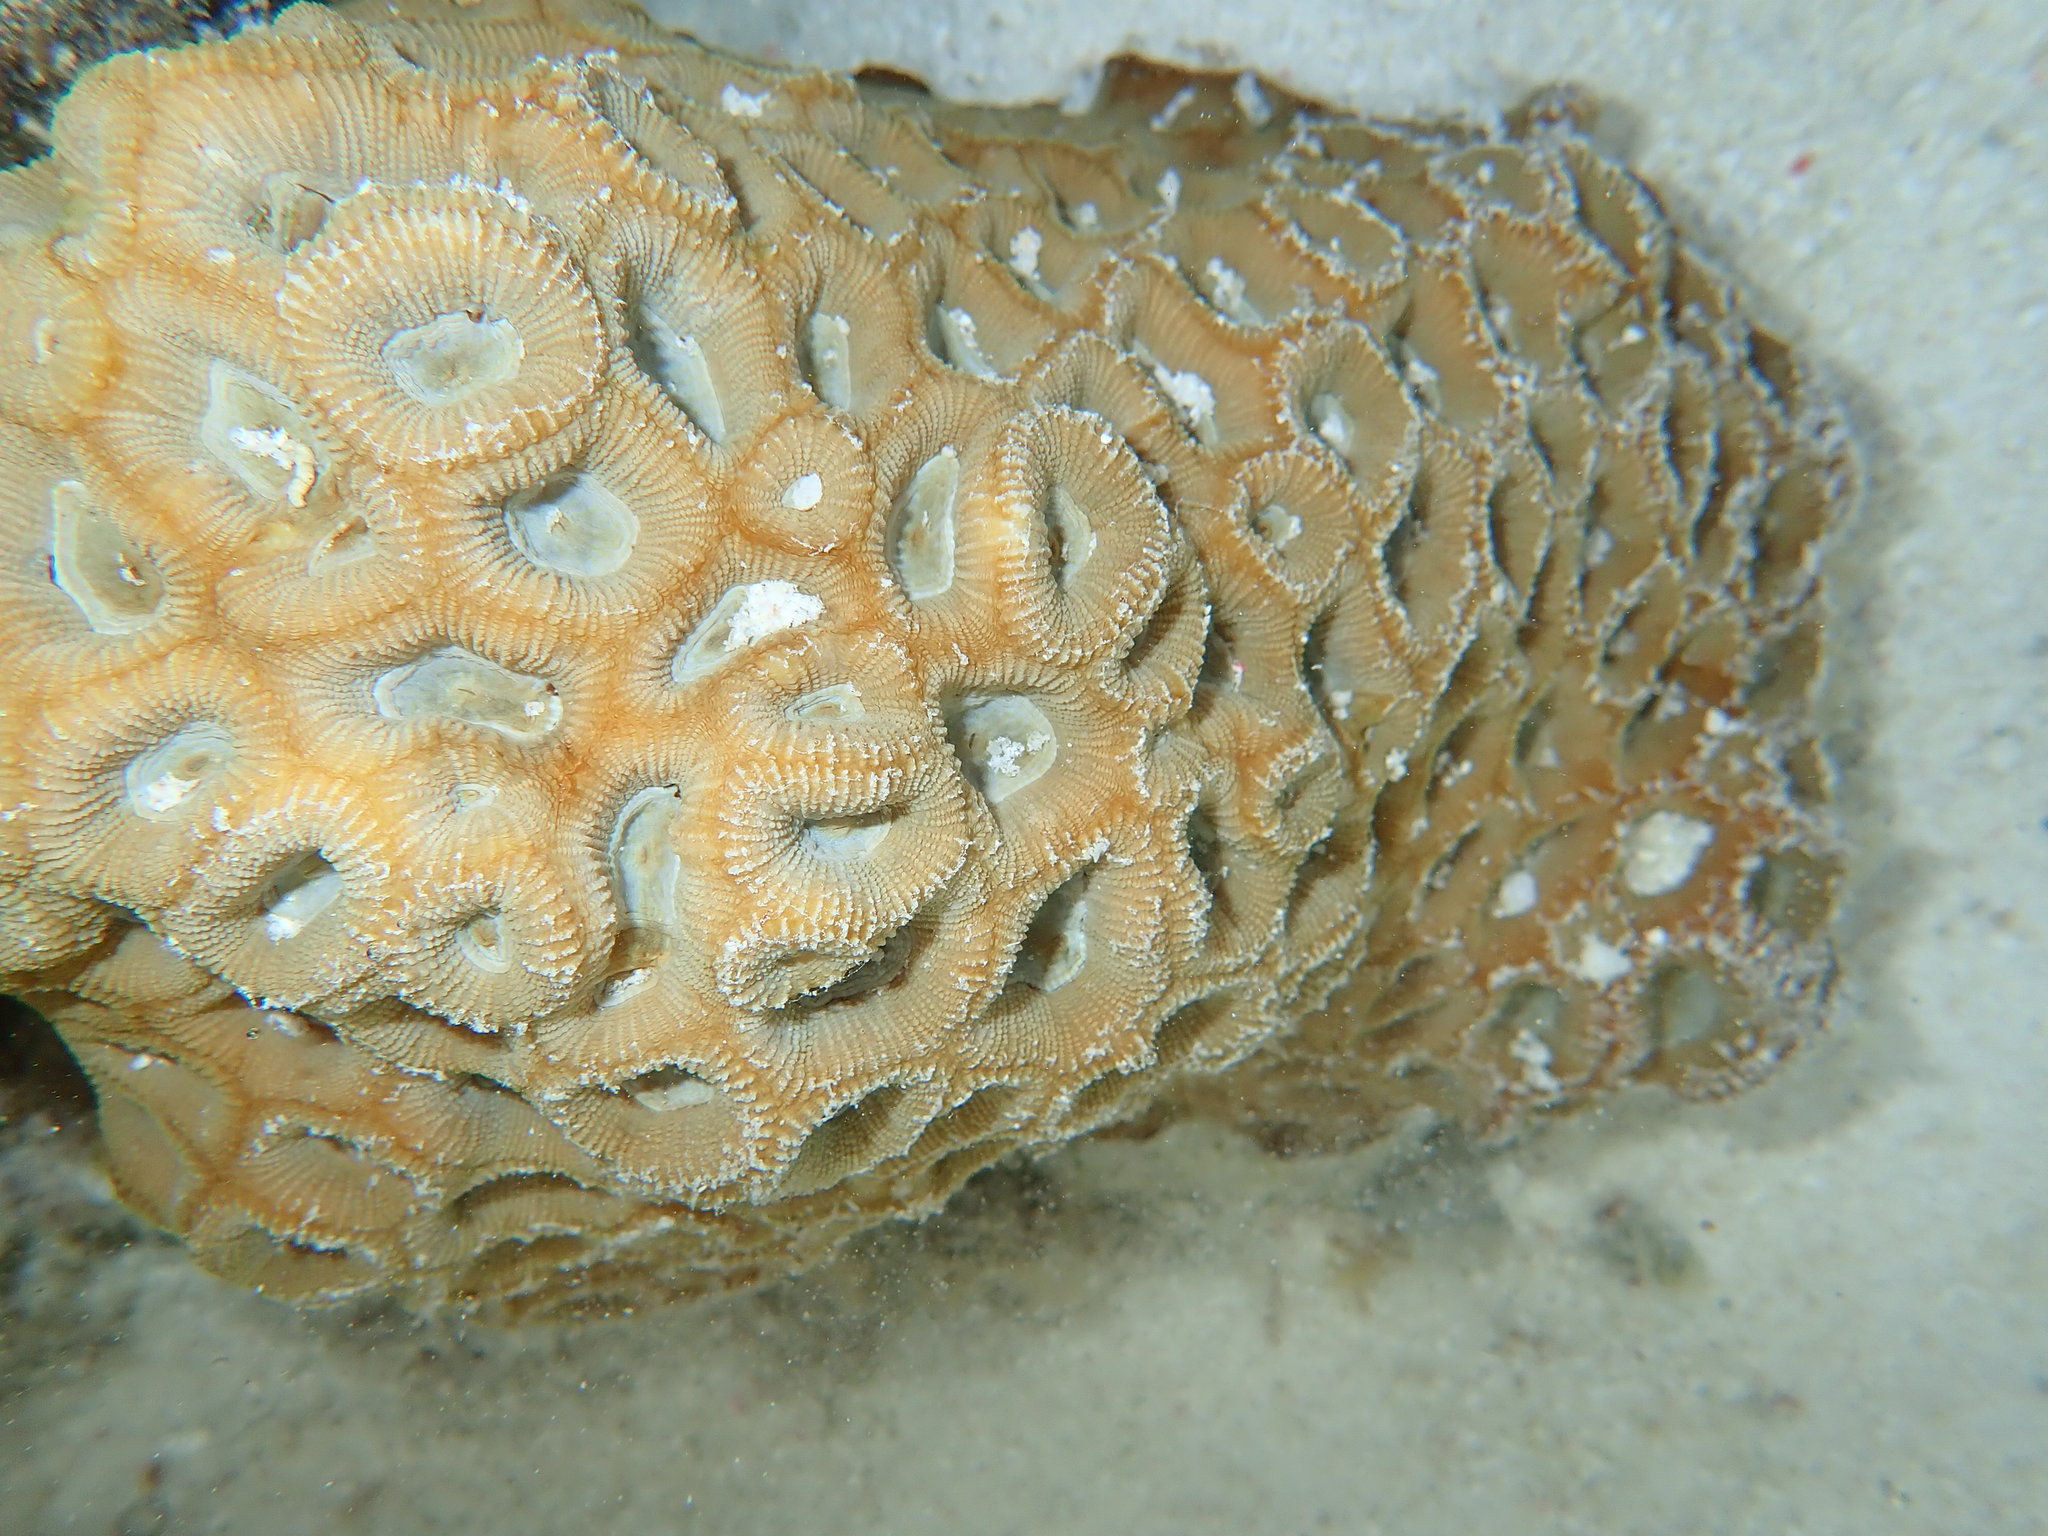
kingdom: Animalia
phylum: Cnidaria
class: Anthozoa
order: Scleractinia
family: Merulinidae
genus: Favites
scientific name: Favites rotundata
